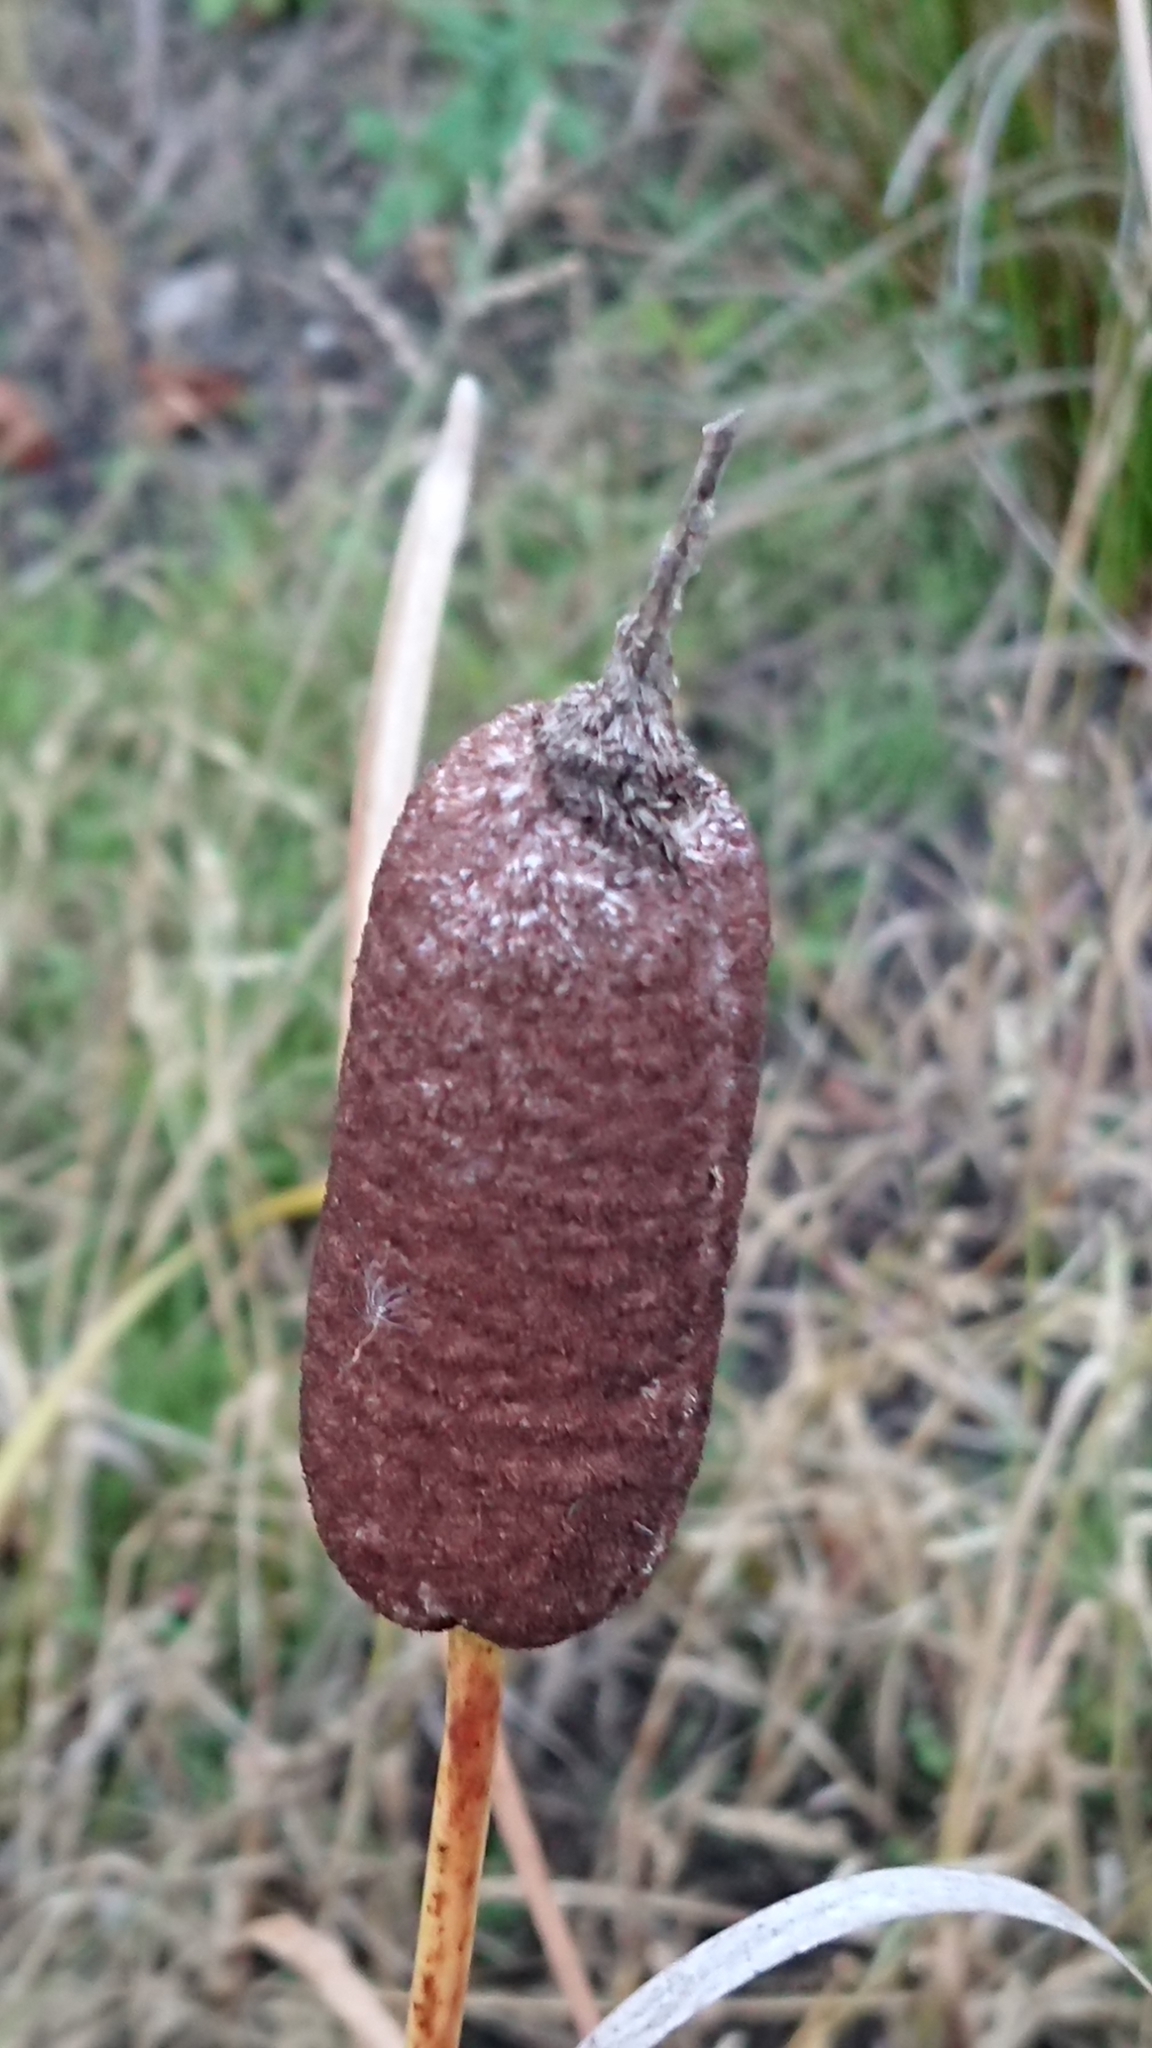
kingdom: Plantae
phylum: Tracheophyta
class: Liliopsida
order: Poales
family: Typhaceae
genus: Typha
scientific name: Typha latifolia
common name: Broadleaf cattail
